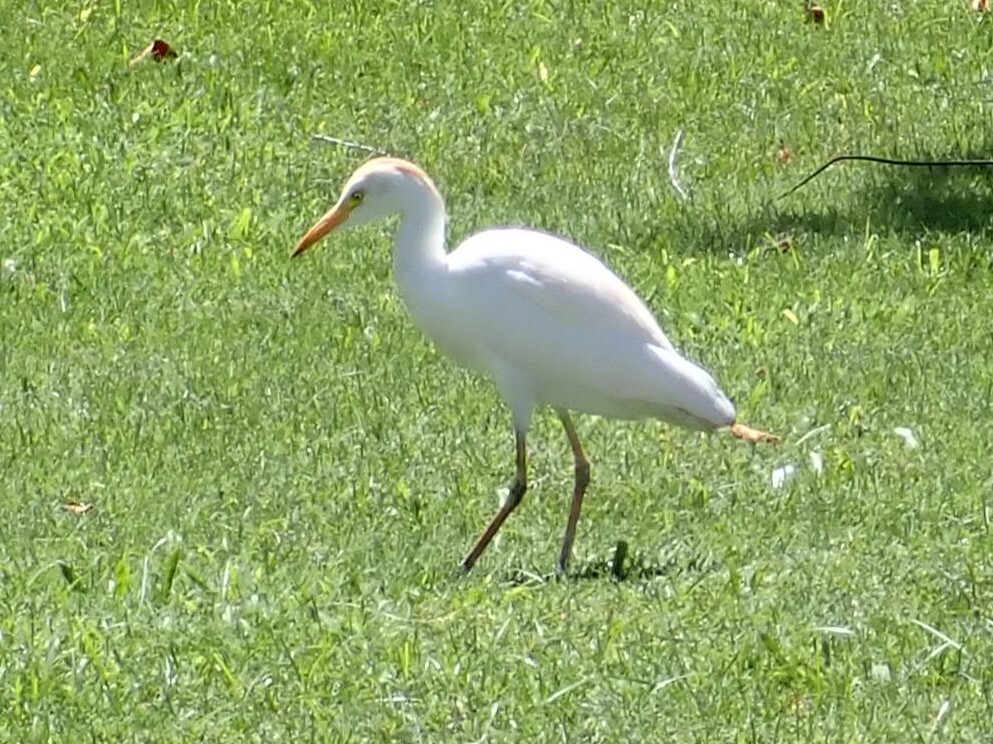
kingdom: Animalia
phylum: Chordata
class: Aves
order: Pelecaniformes
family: Ardeidae
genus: Bubulcus
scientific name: Bubulcus ibis
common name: Cattle egret
